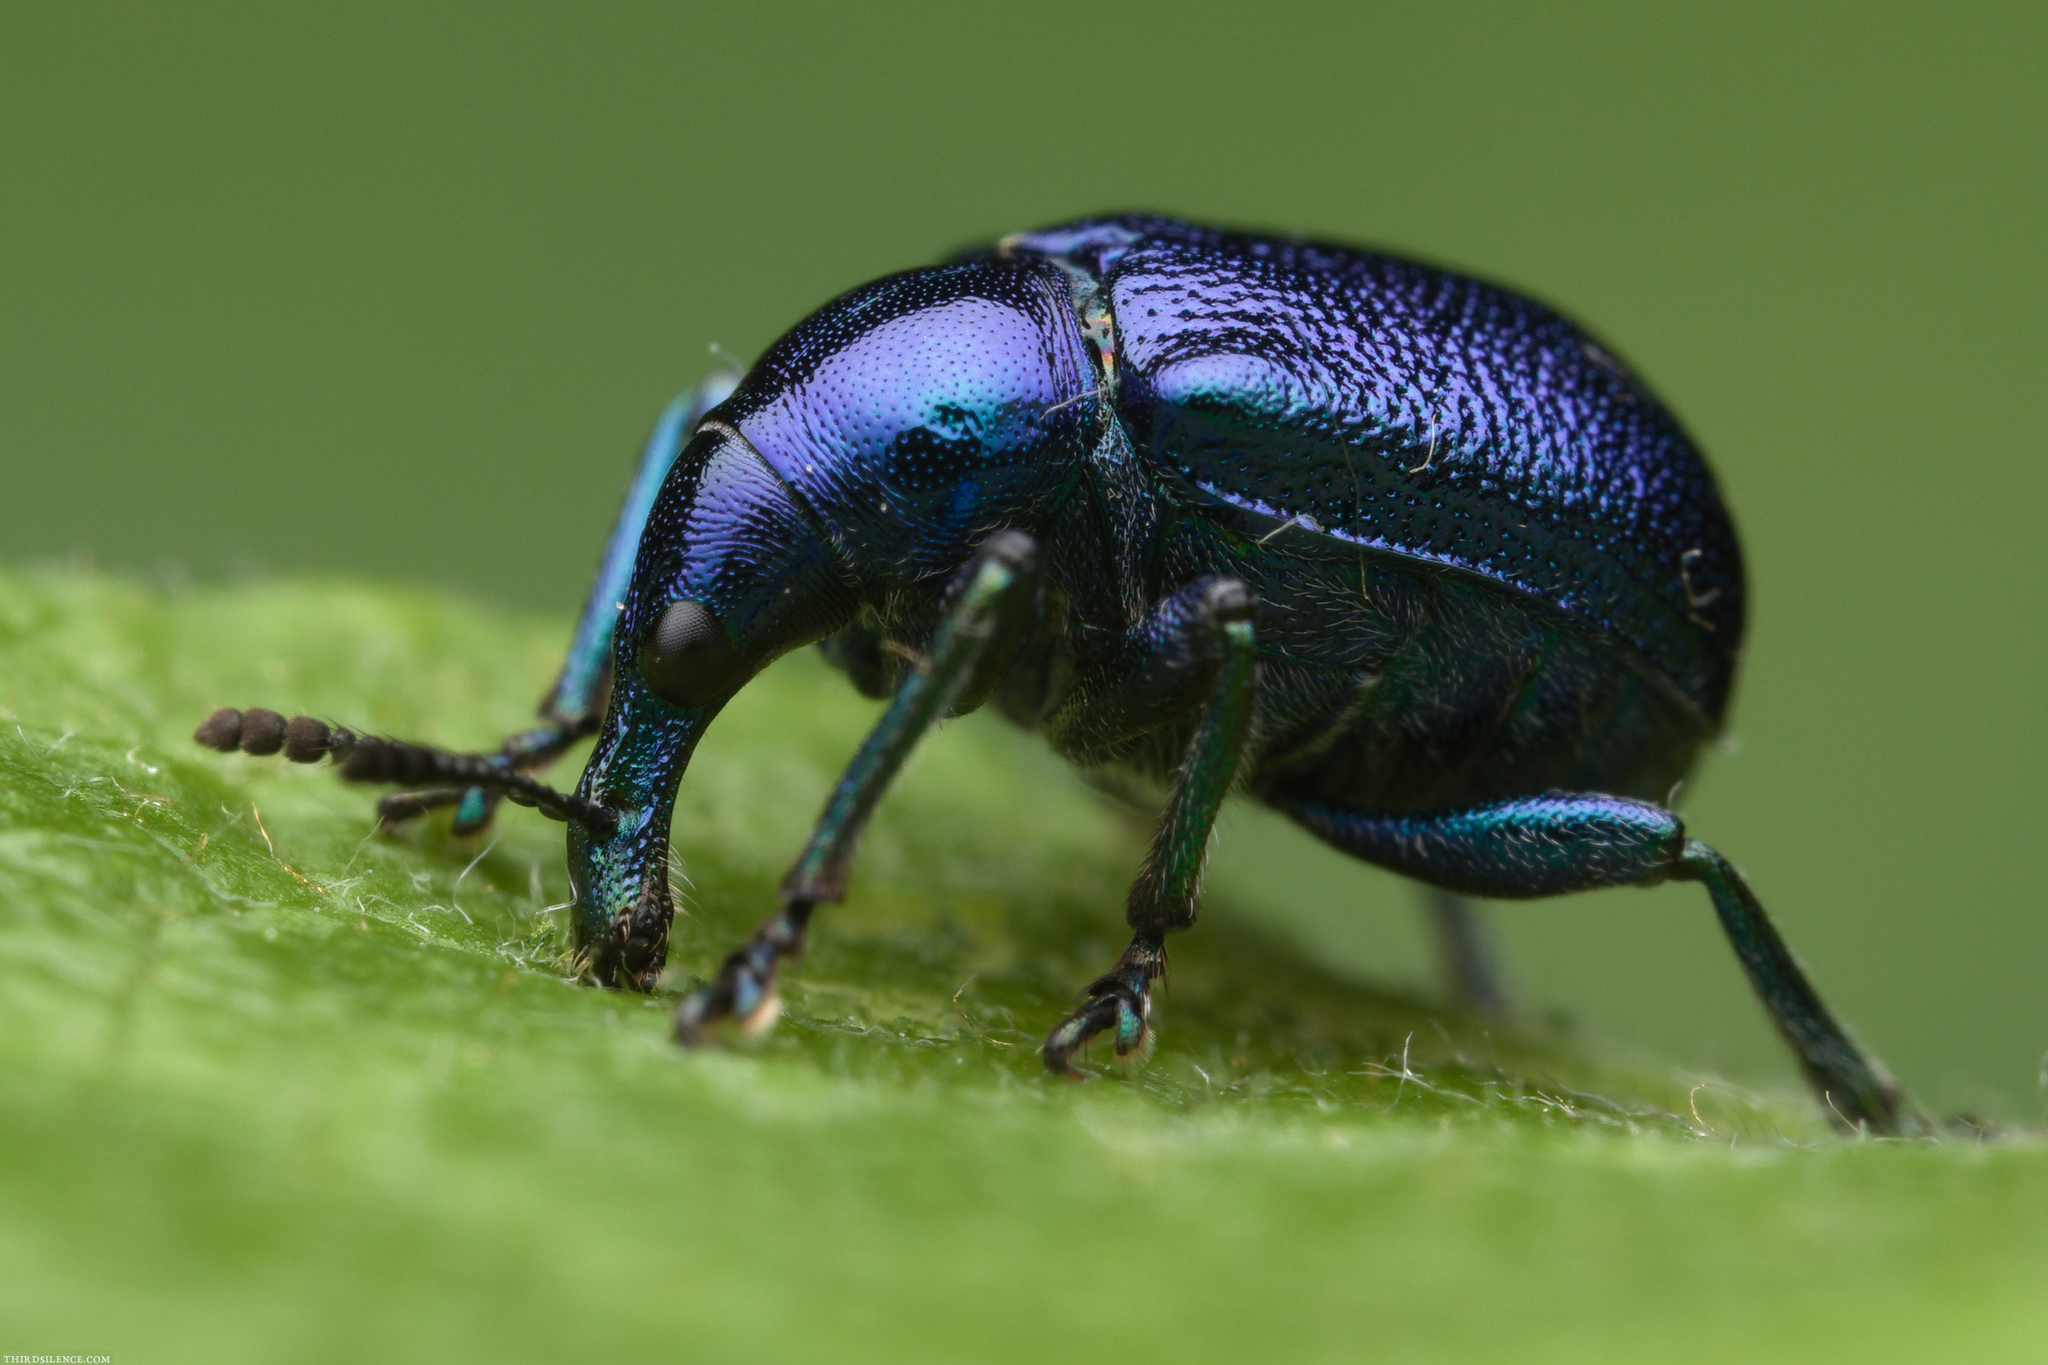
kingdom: Animalia
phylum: Arthropoda
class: Insecta
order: Coleoptera
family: Attelabidae
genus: Byctiscus
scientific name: Byctiscus betulae
